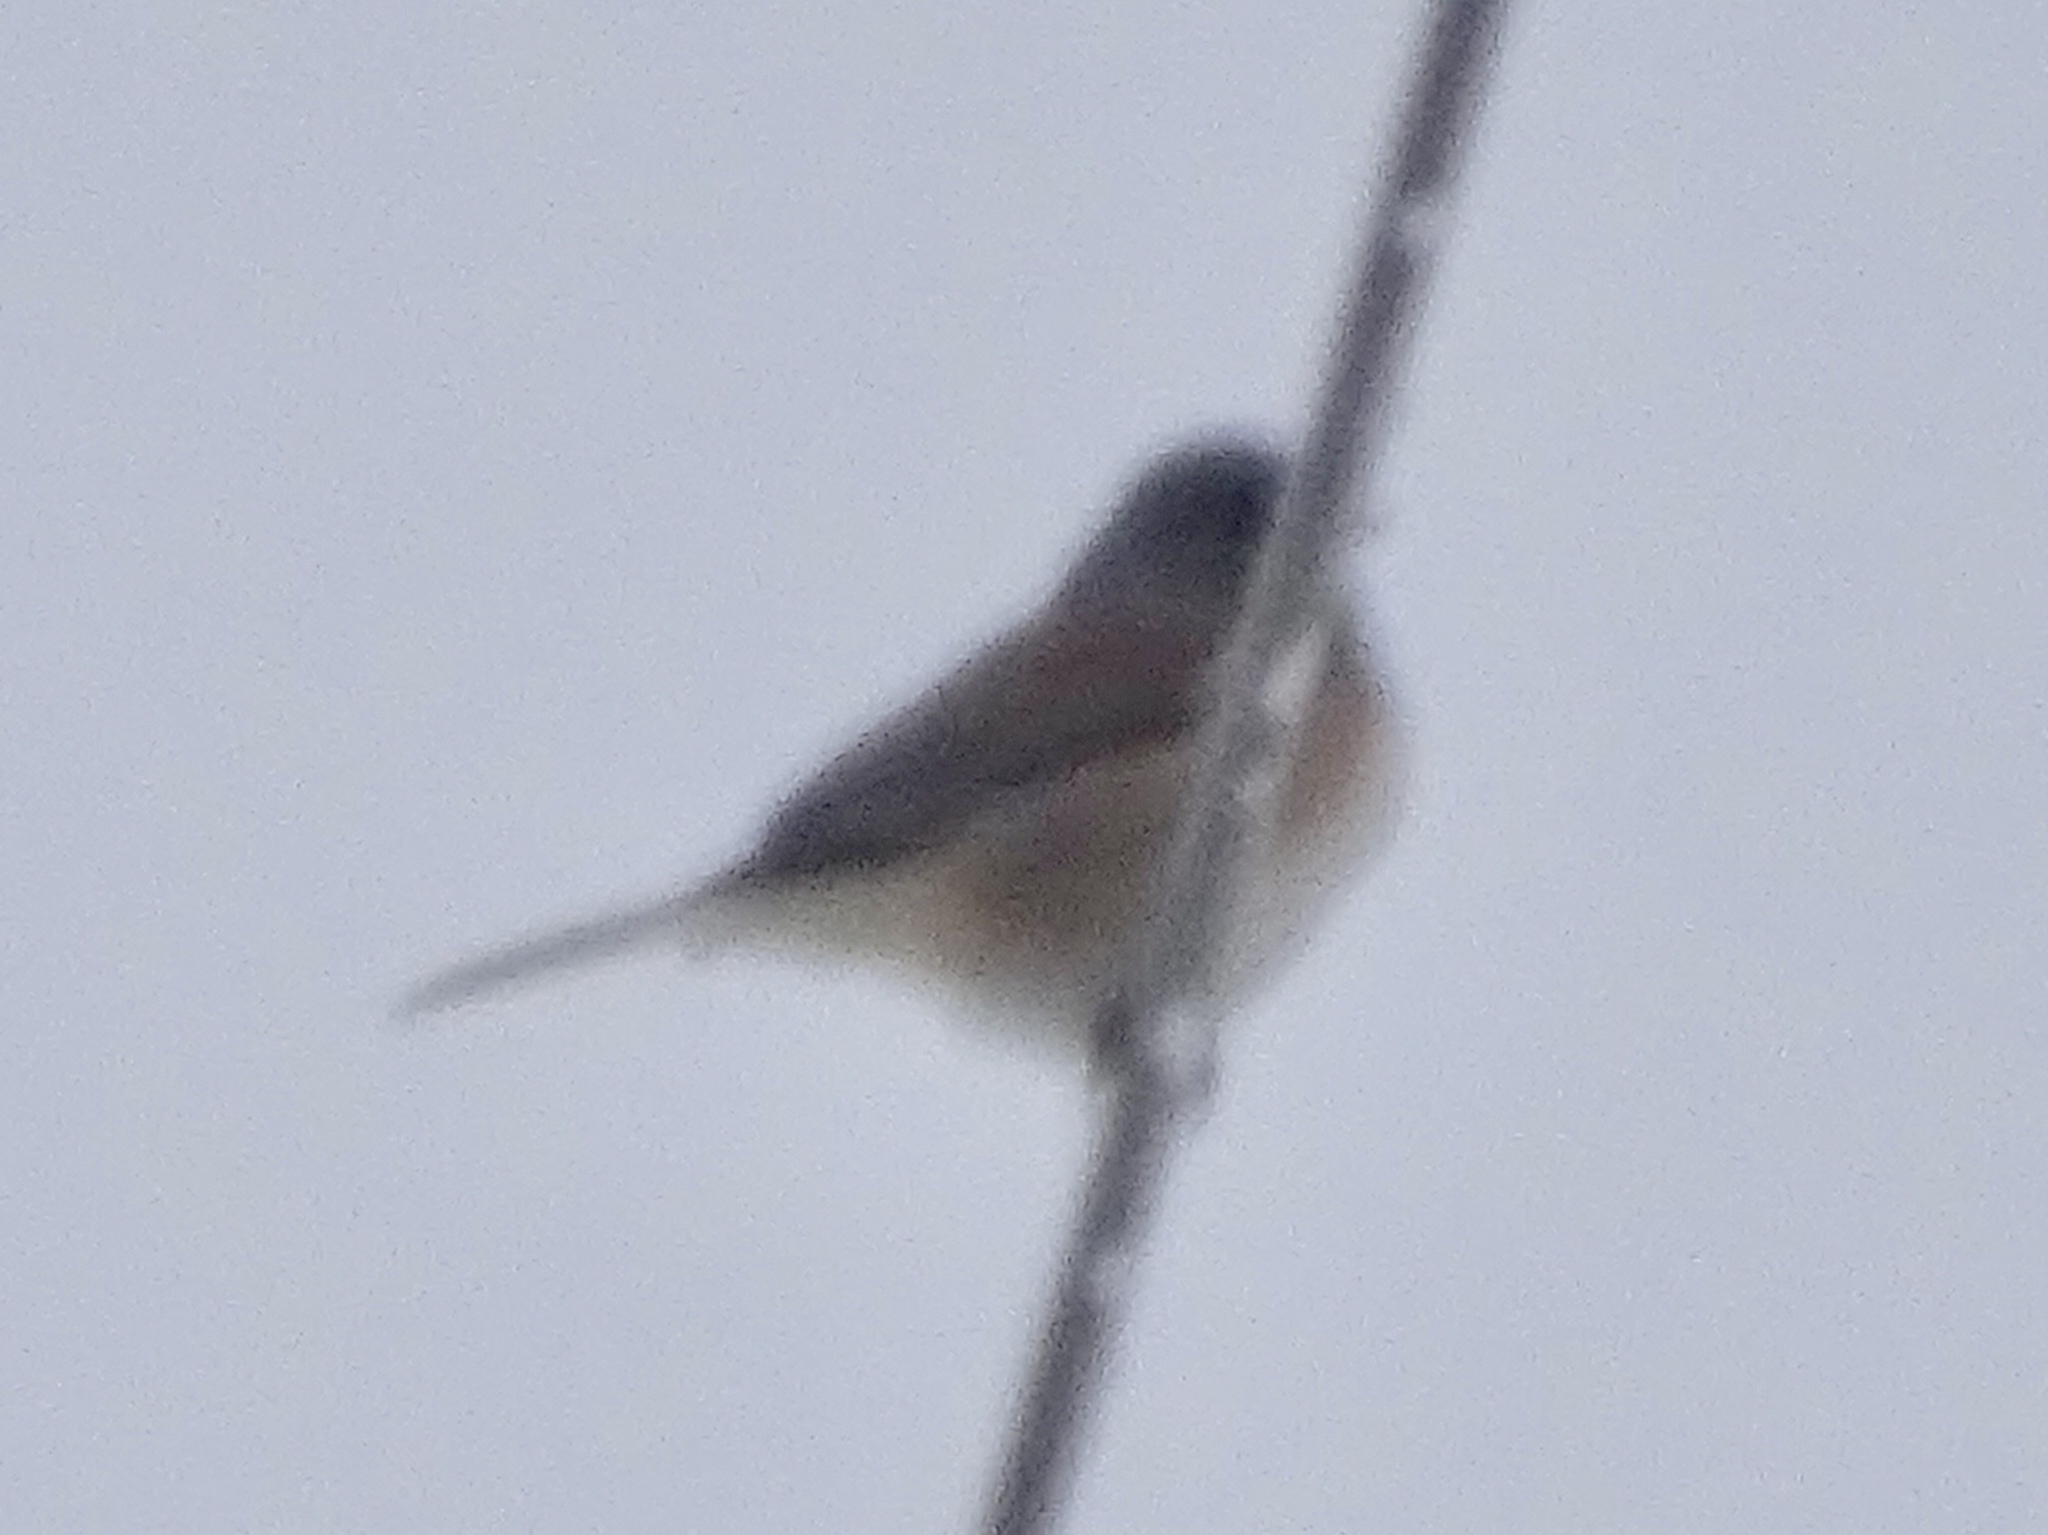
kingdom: Animalia
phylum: Chordata
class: Aves
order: Passeriformes
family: Passerellidae
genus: Junco
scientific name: Junco hyemalis
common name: Dark-eyed junco
